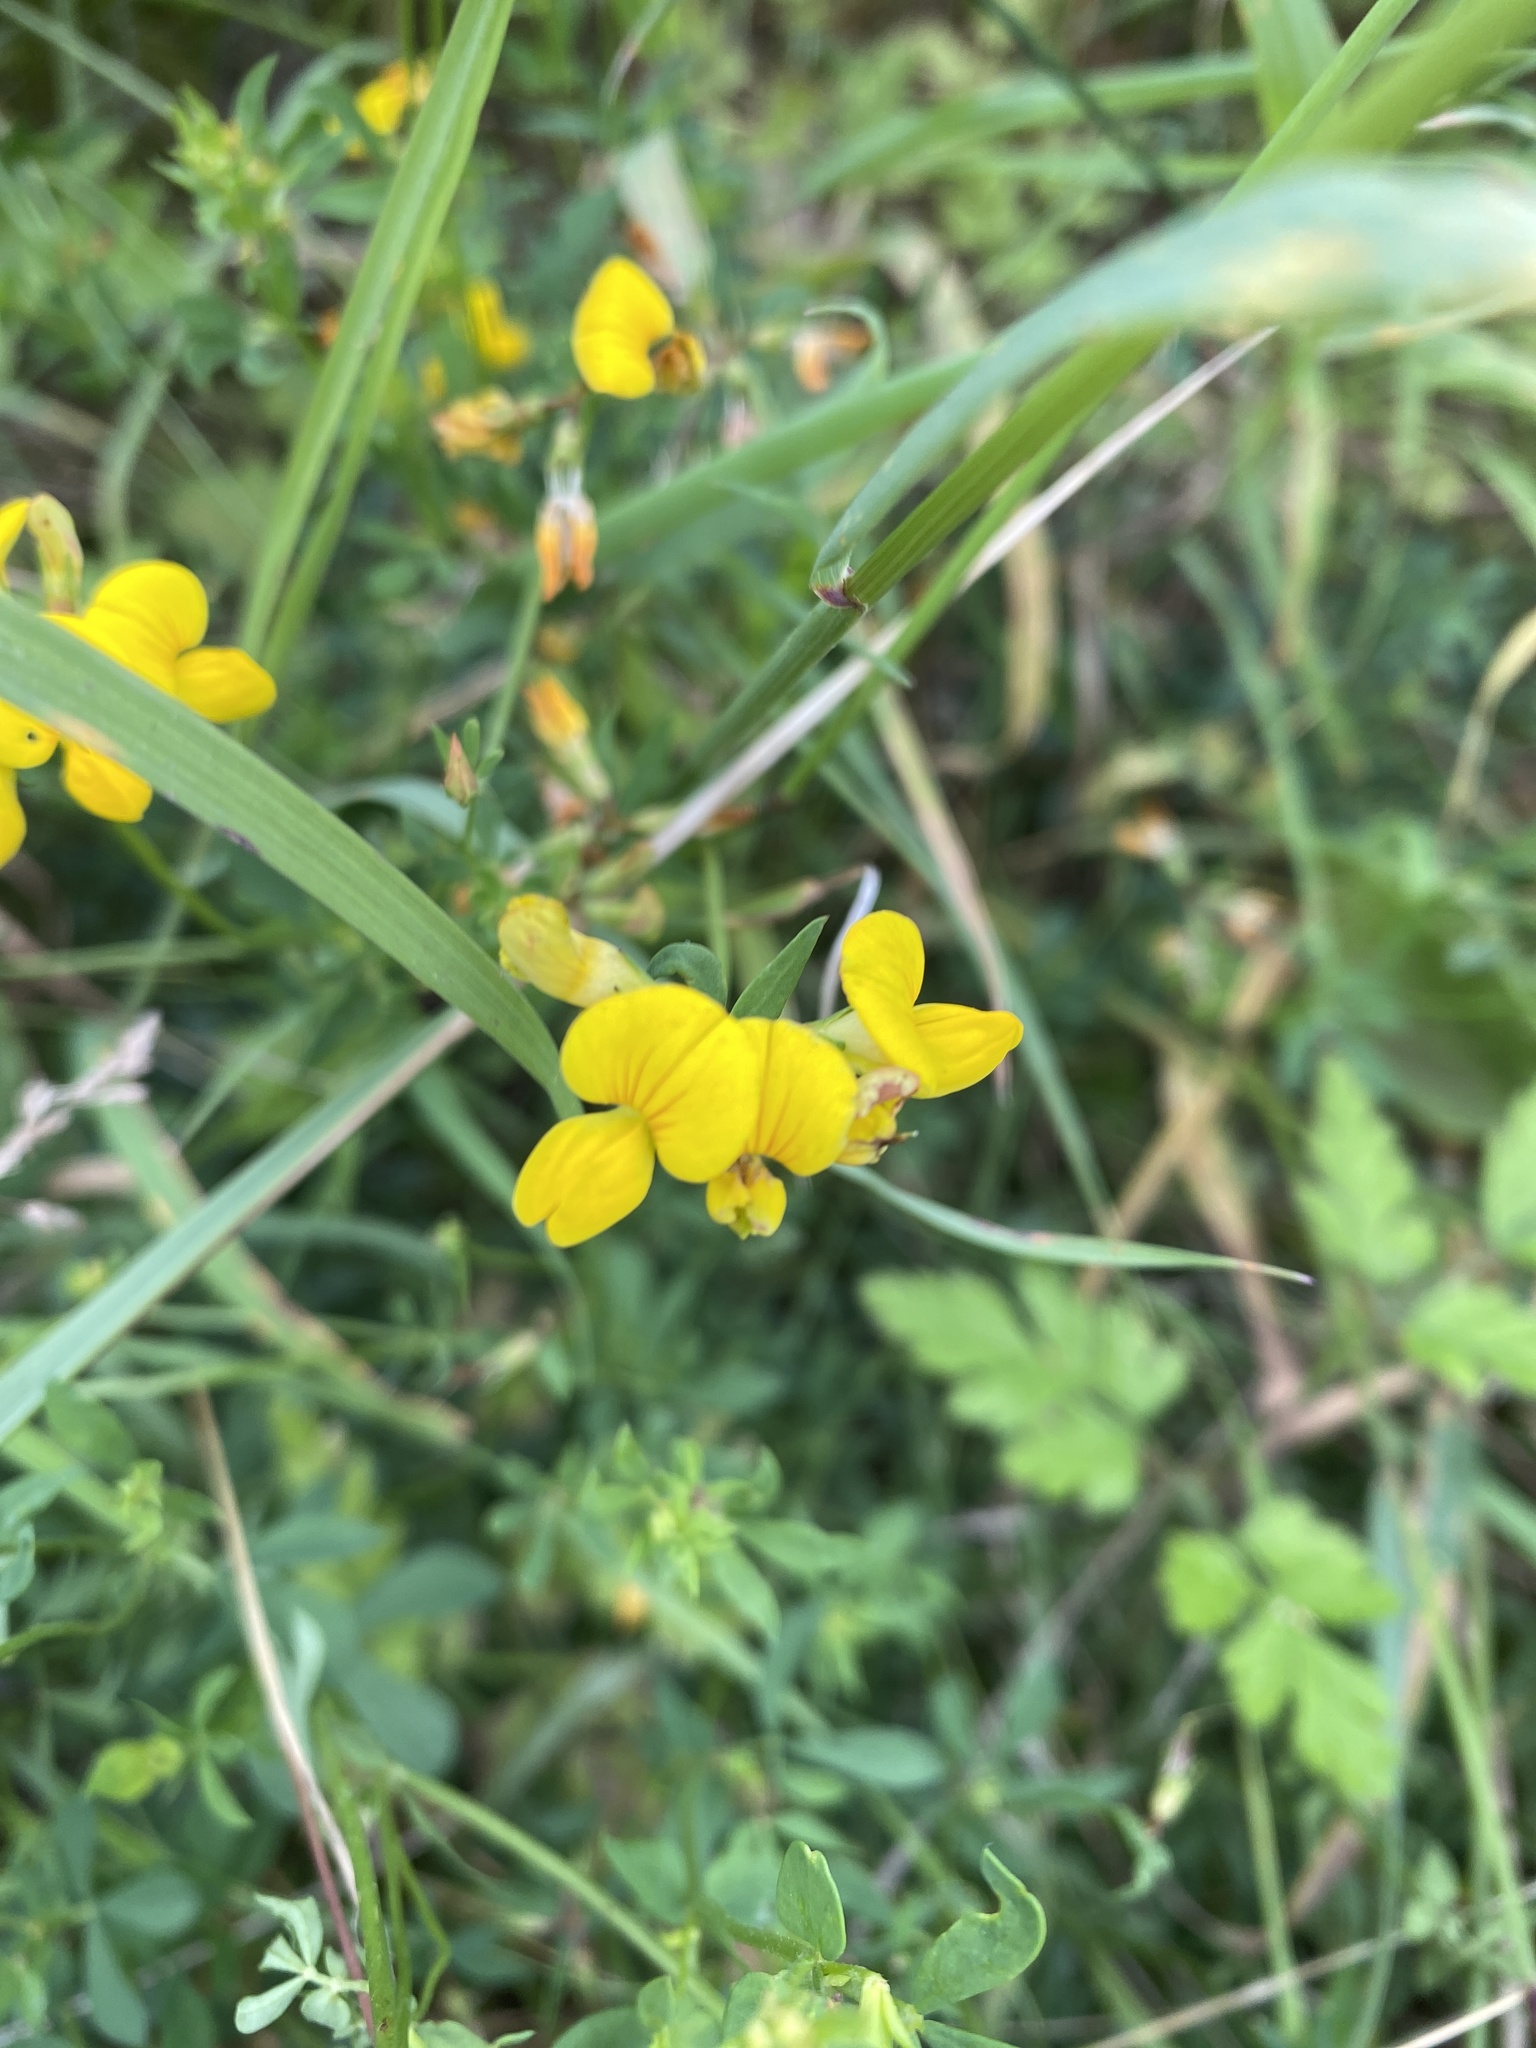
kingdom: Plantae
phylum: Tracheophyta
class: Magnoliopsida
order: Fabales
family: Fabaceae
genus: Lotus
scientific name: Lotus corniculatus
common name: Common bird's-foot-trefoil
